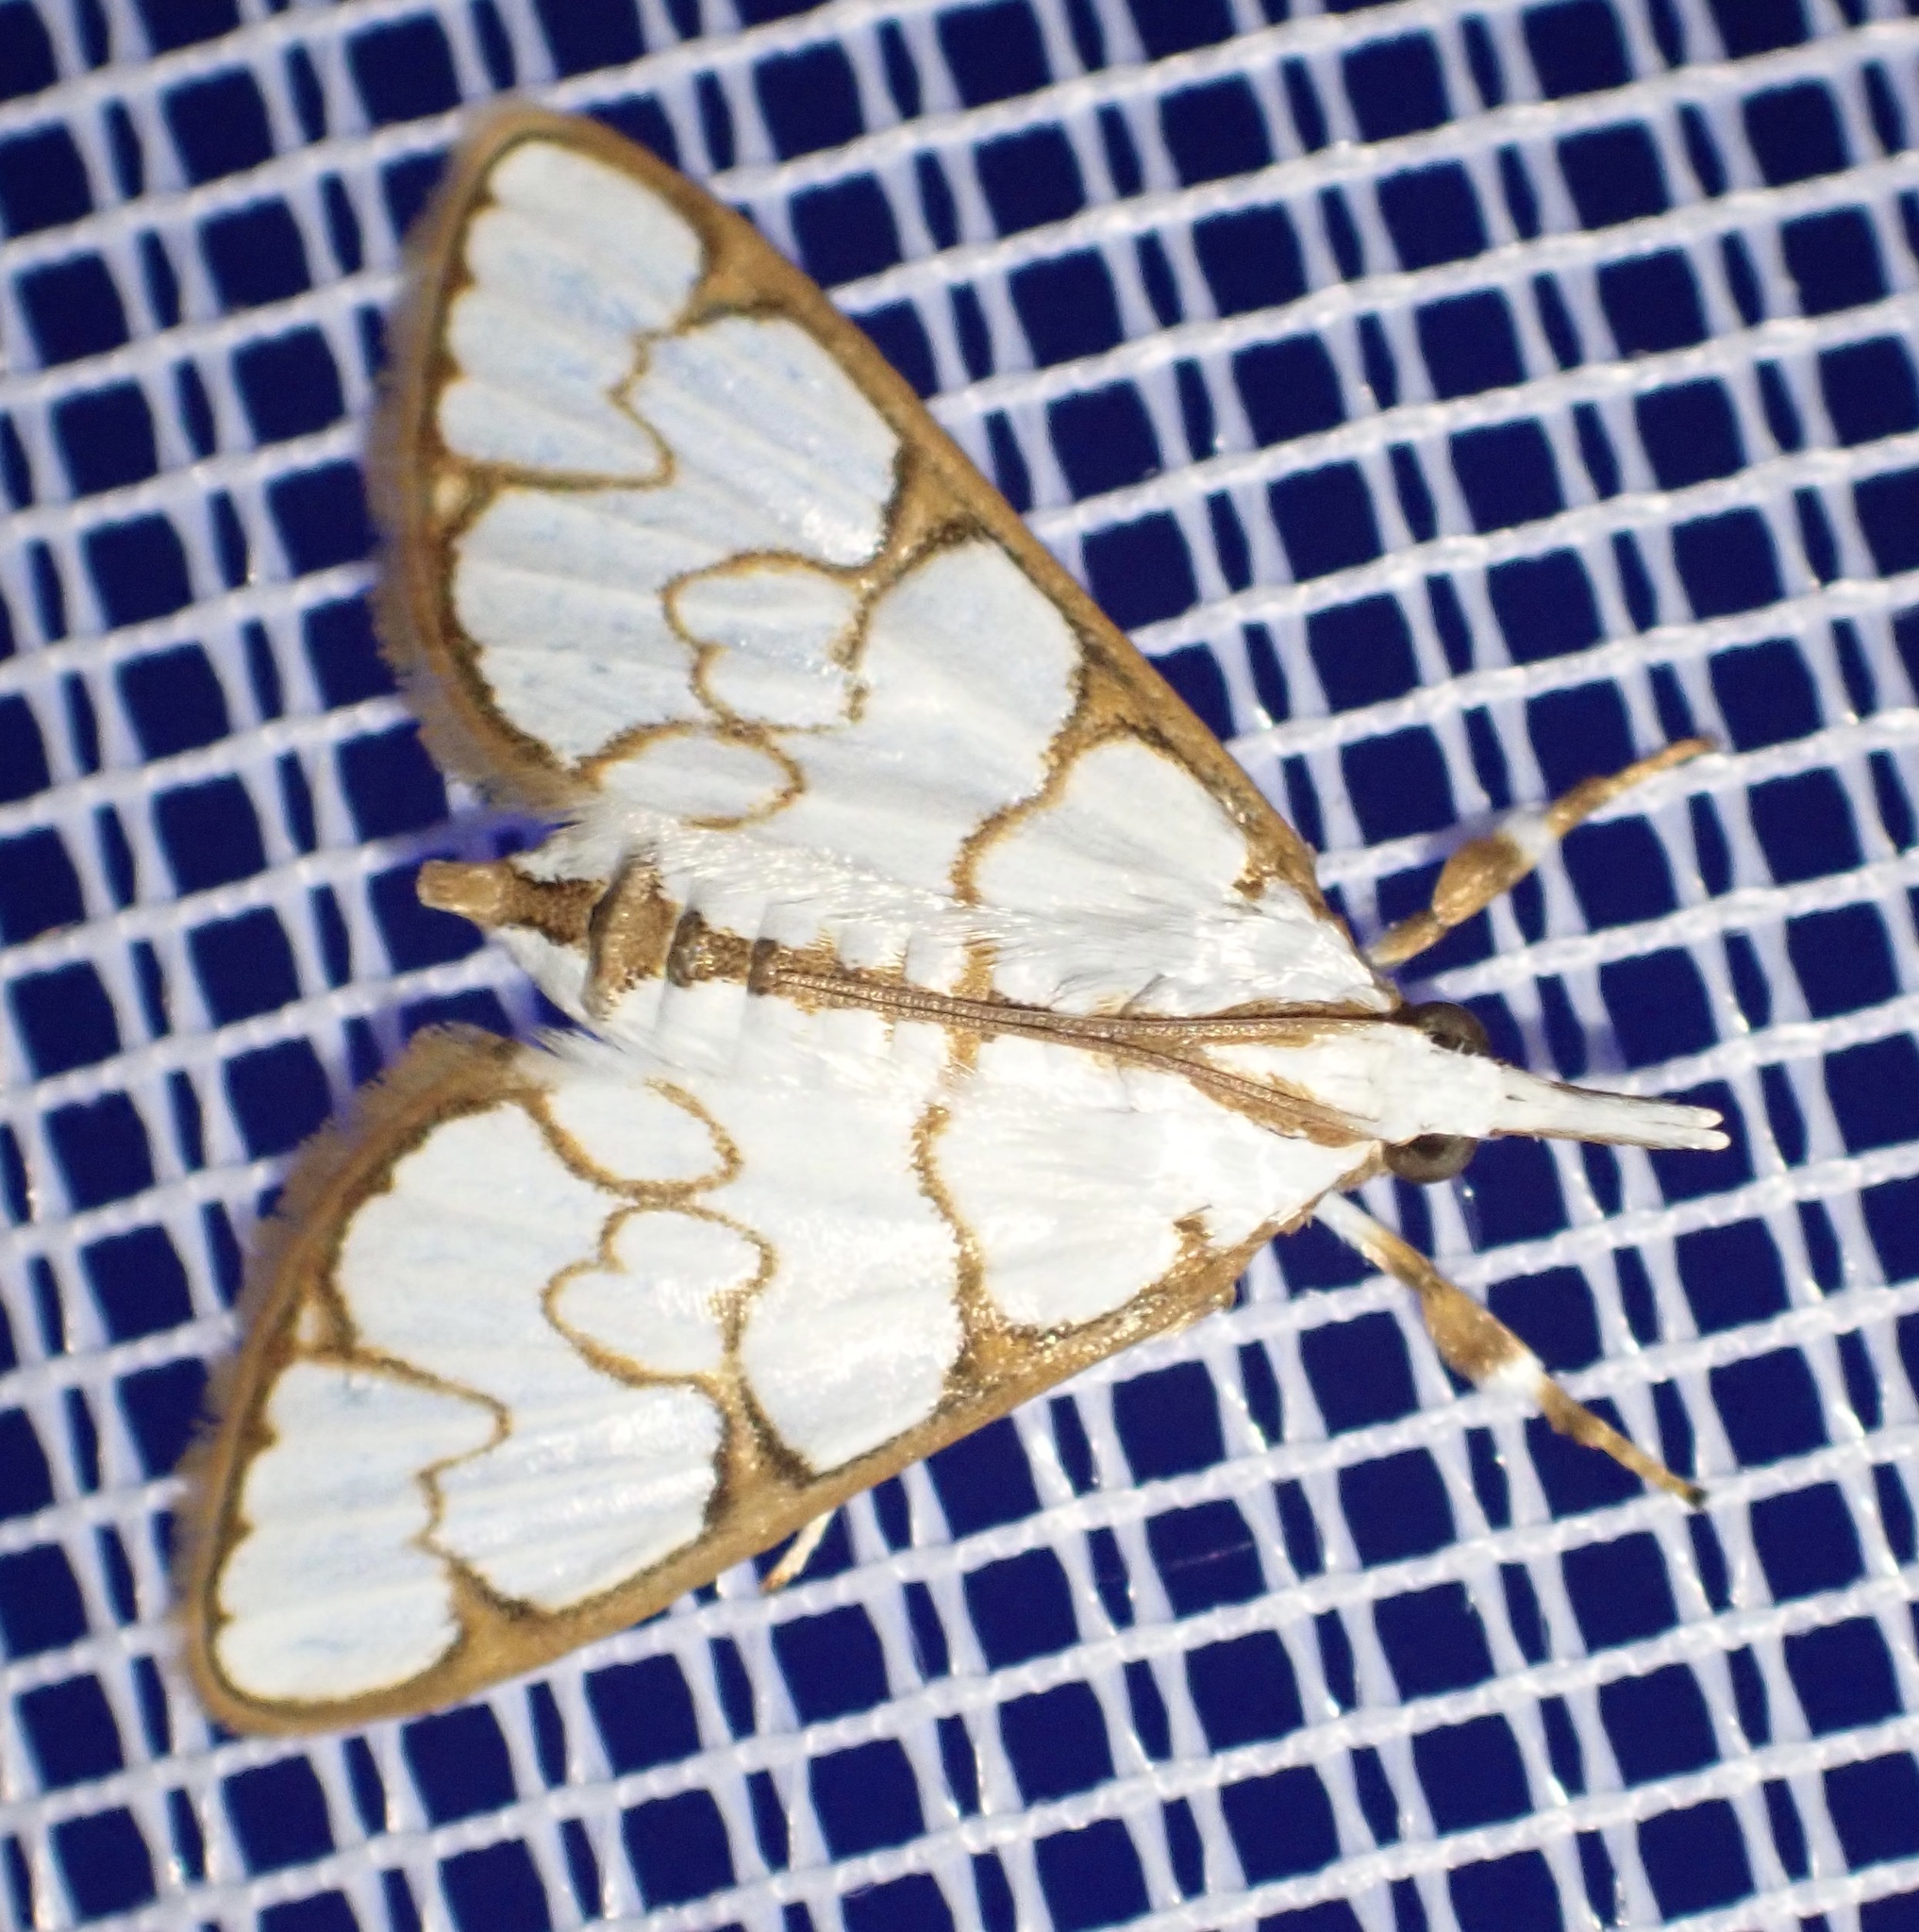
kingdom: Animalia
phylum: Arthropoda
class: Insecta
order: Lepidoptera
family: Crambidae
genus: Cirrhochrista
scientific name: Cirrhochrista grabczewskyi
